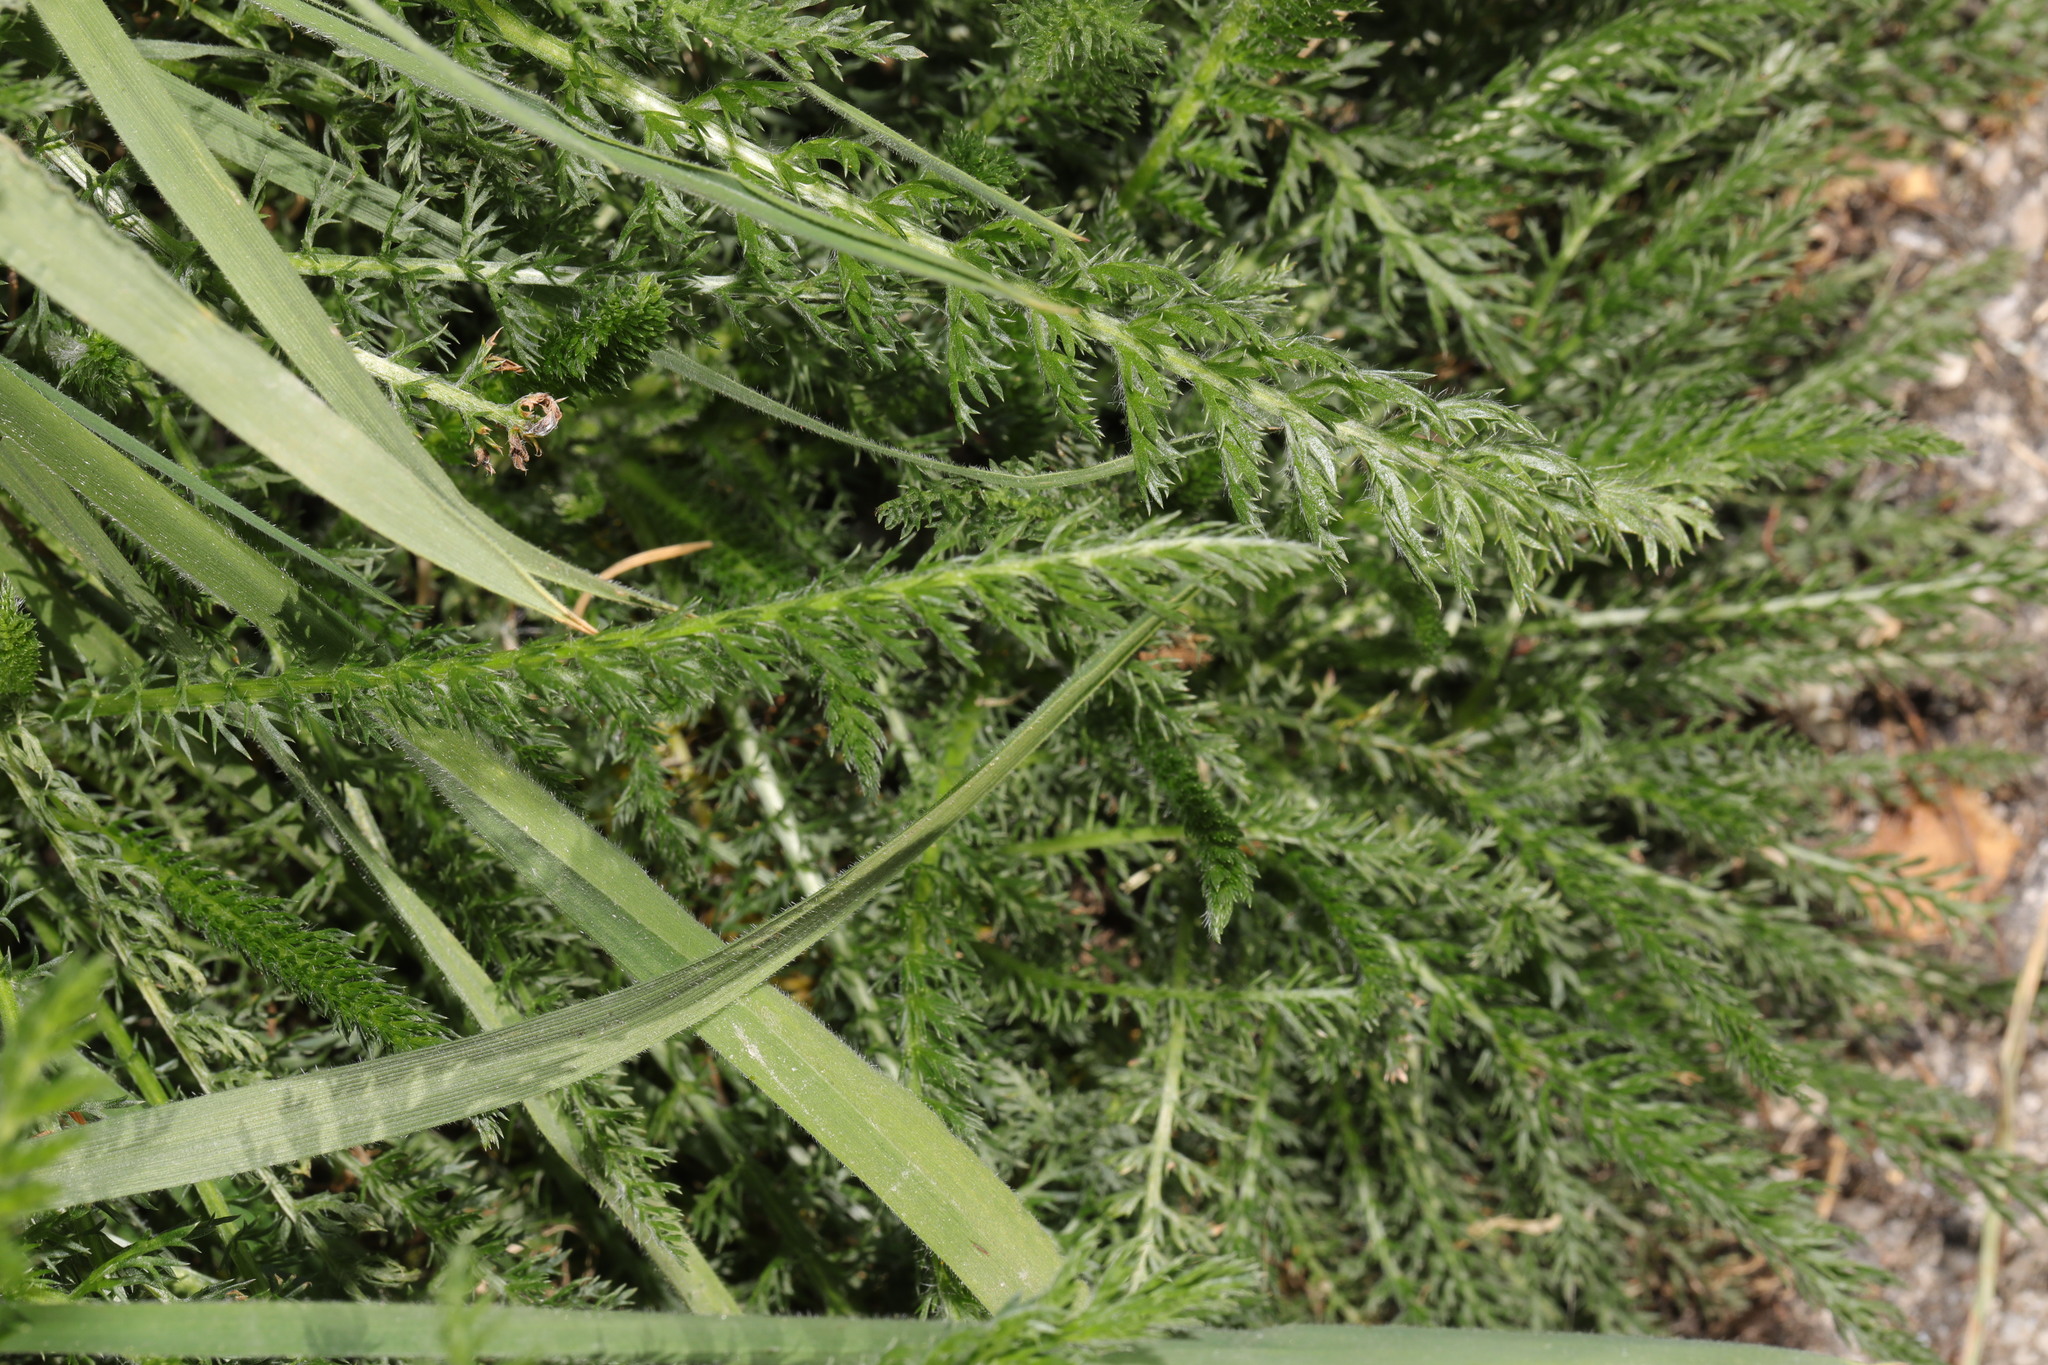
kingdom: Plantae
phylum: Tracheophyta
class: Magnoliopsida
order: Asterales
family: Asteraceae
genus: Achillea
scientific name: Achillea millefolium
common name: Yarrow
